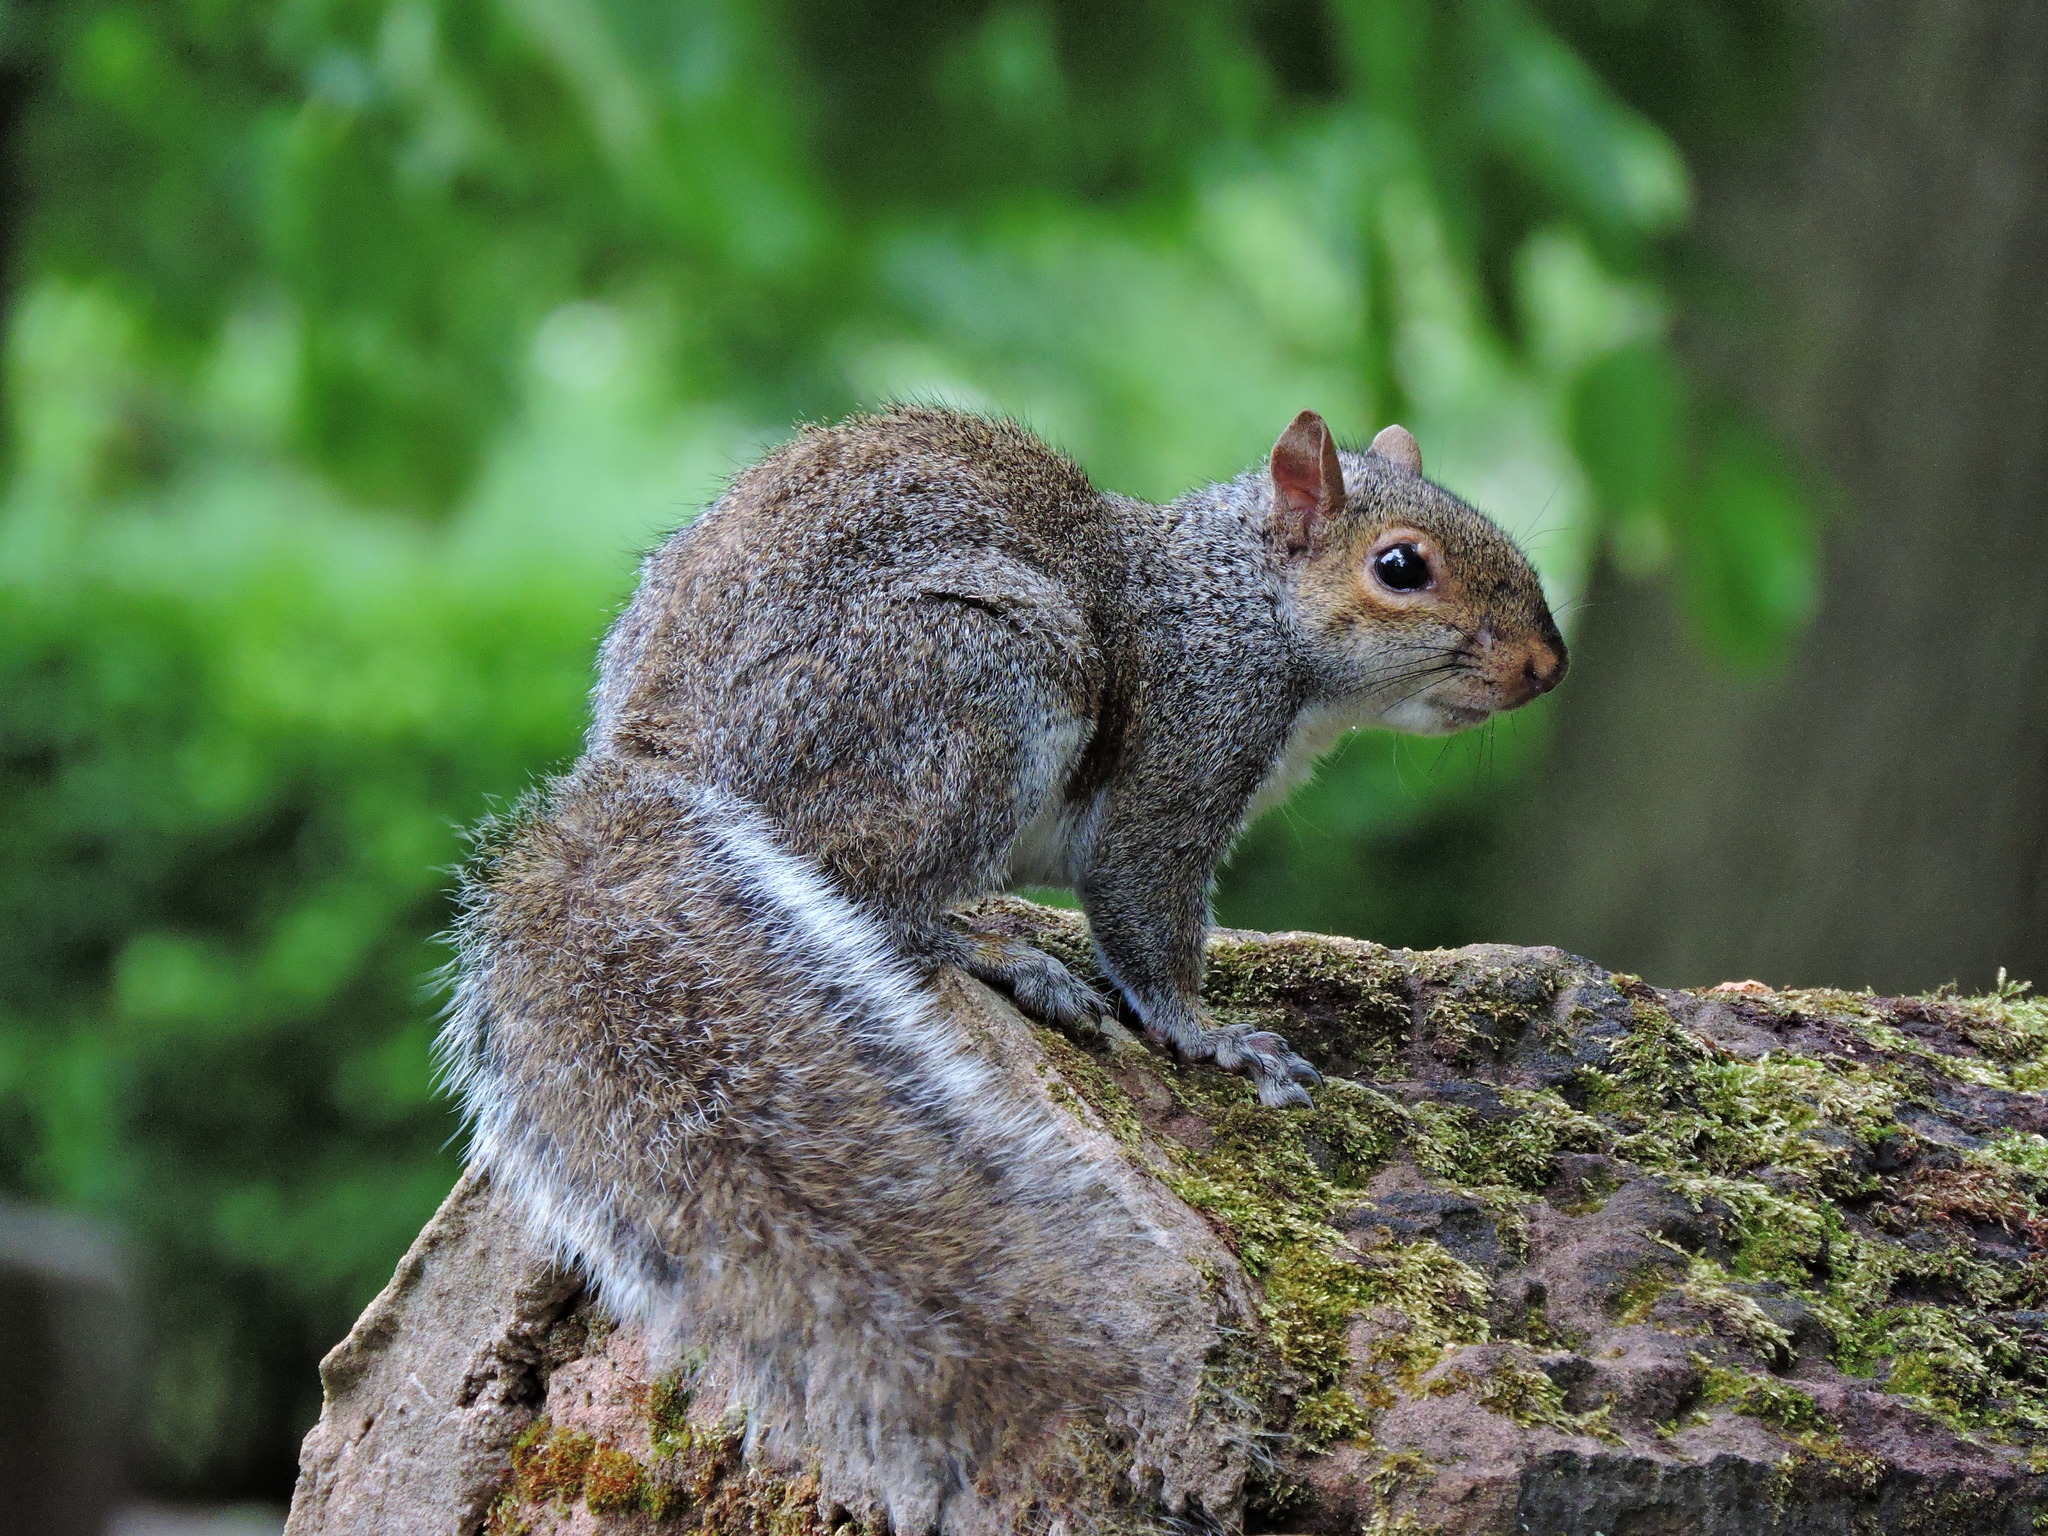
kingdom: Animalia
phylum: Chordata
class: Mammalia
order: Rodentia
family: Sciuridae
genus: Sciurus
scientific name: Sciurus carolinensis
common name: Eastern gray squirrel
